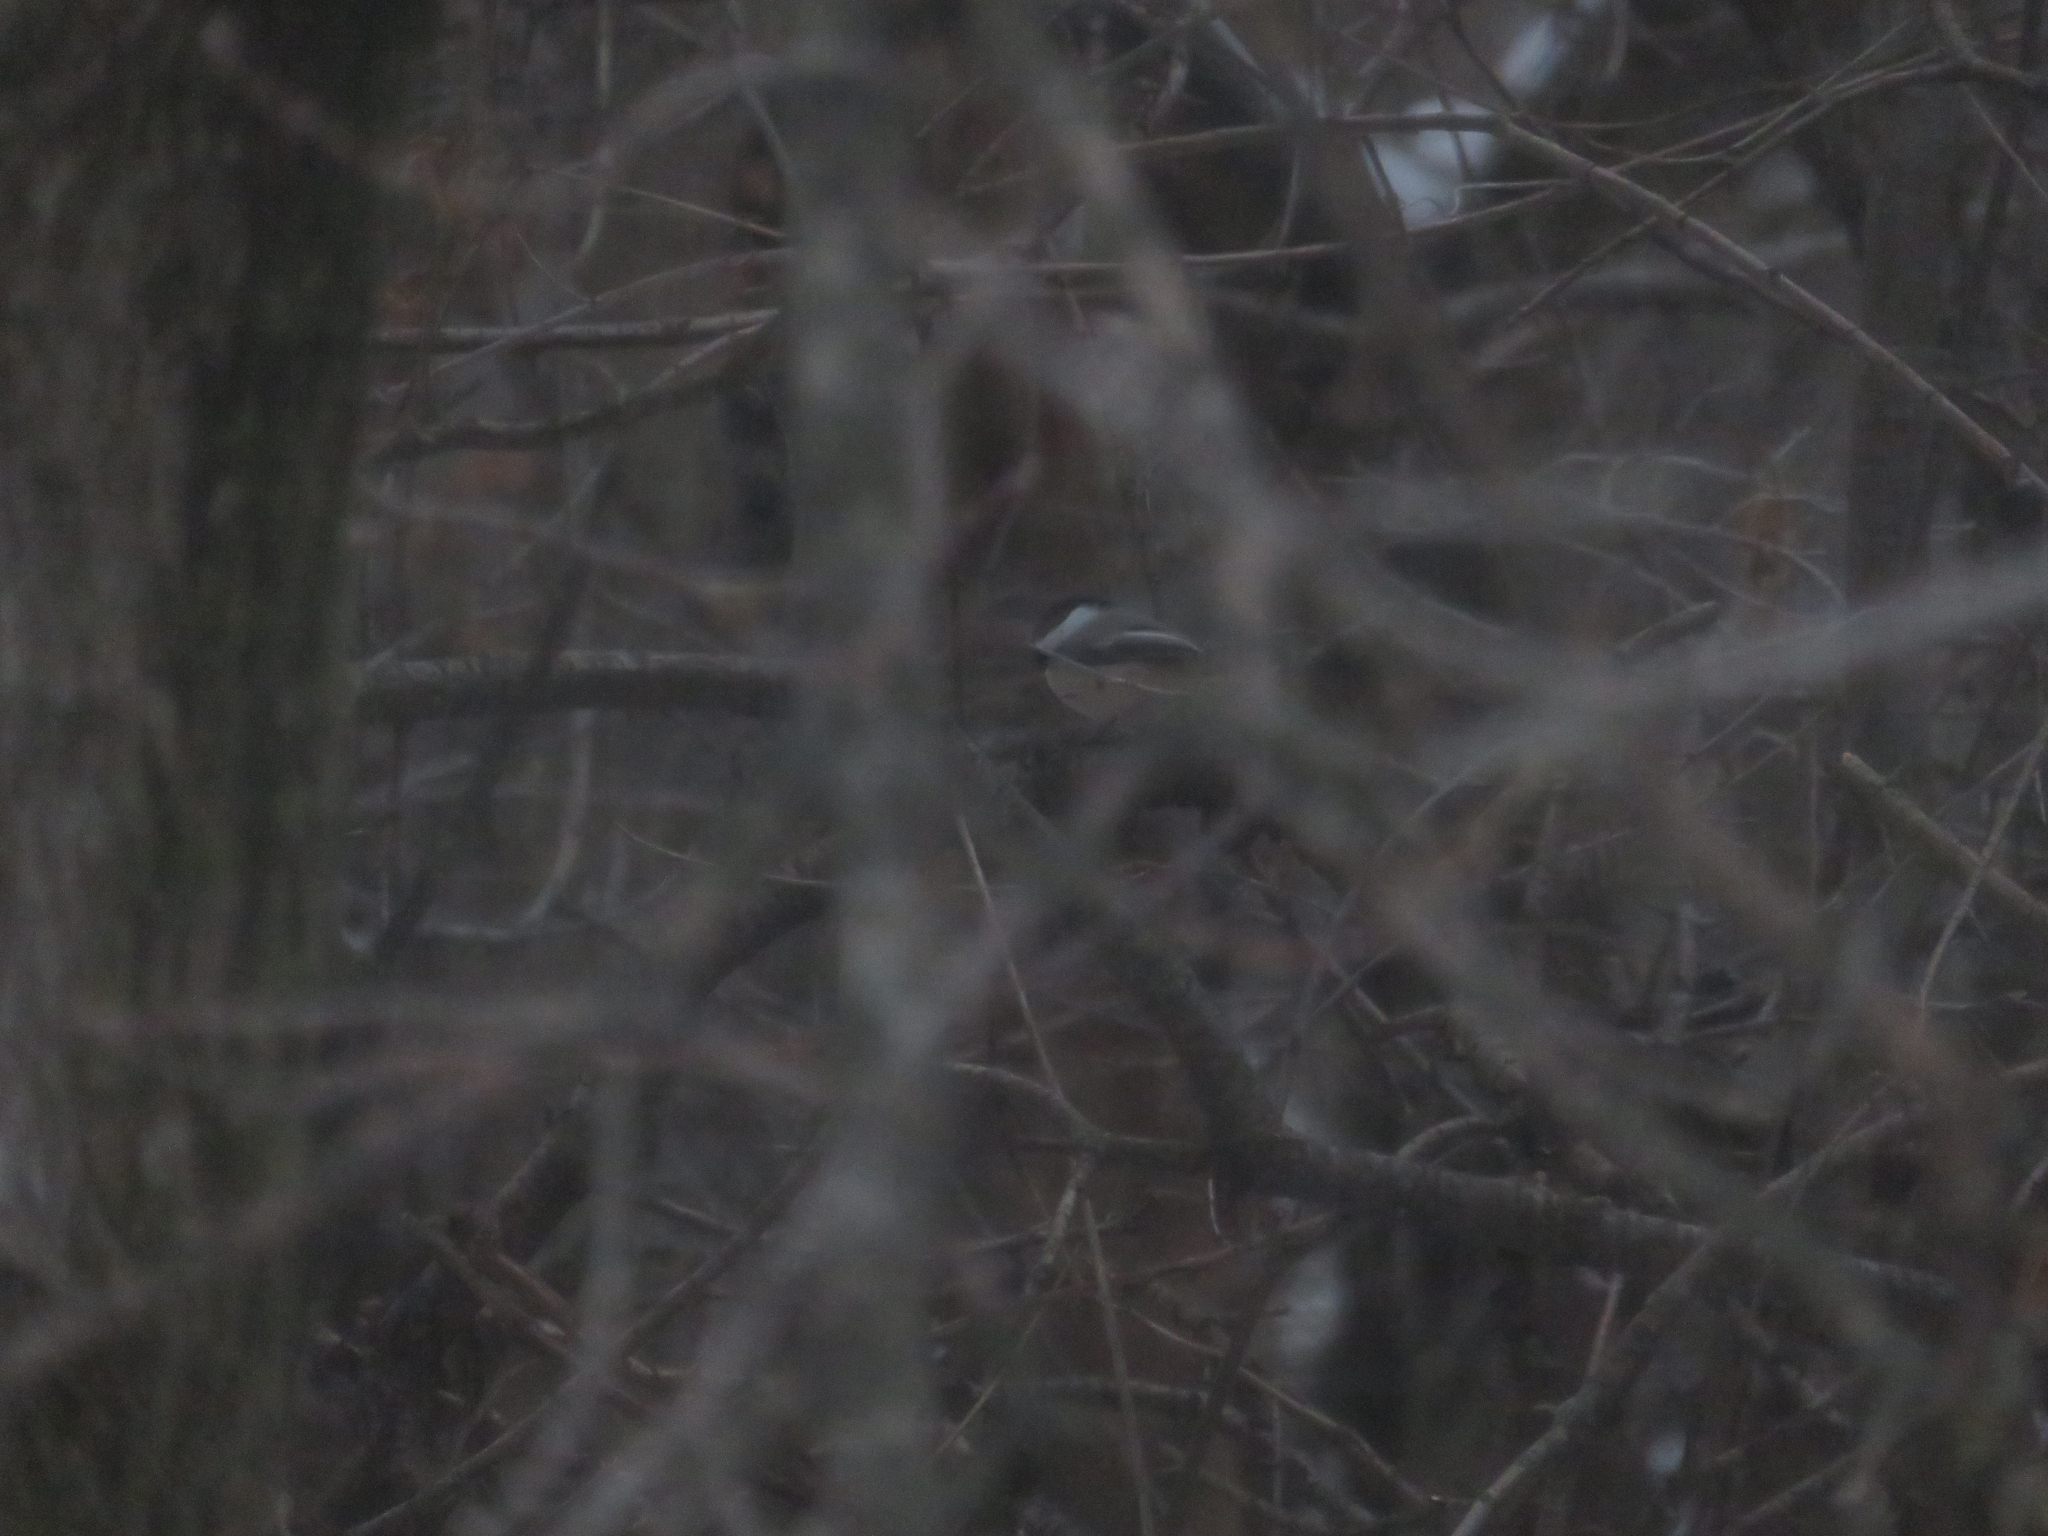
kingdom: Animalia
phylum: Chordata
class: Aves
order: Passeriformes
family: Paridae
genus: Poecile
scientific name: Poecile atricapillus
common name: Black-capped chickadee
